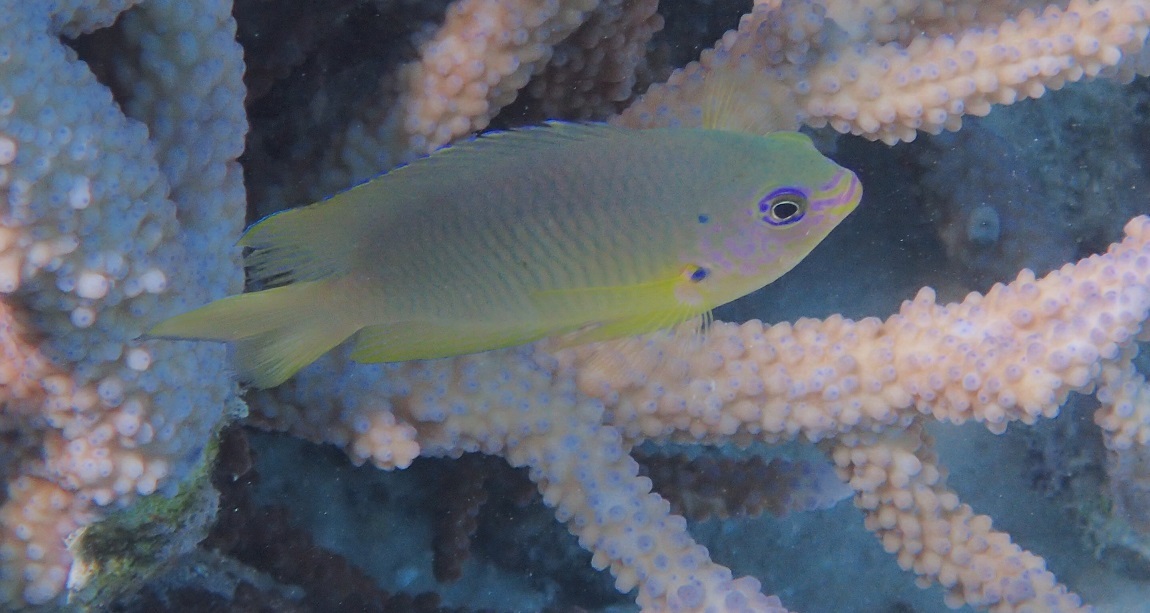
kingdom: Animalia
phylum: Chordata
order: Perciformes
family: Pomacentridae
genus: Pomacentrus
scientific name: Pomacentrus amboinensis
